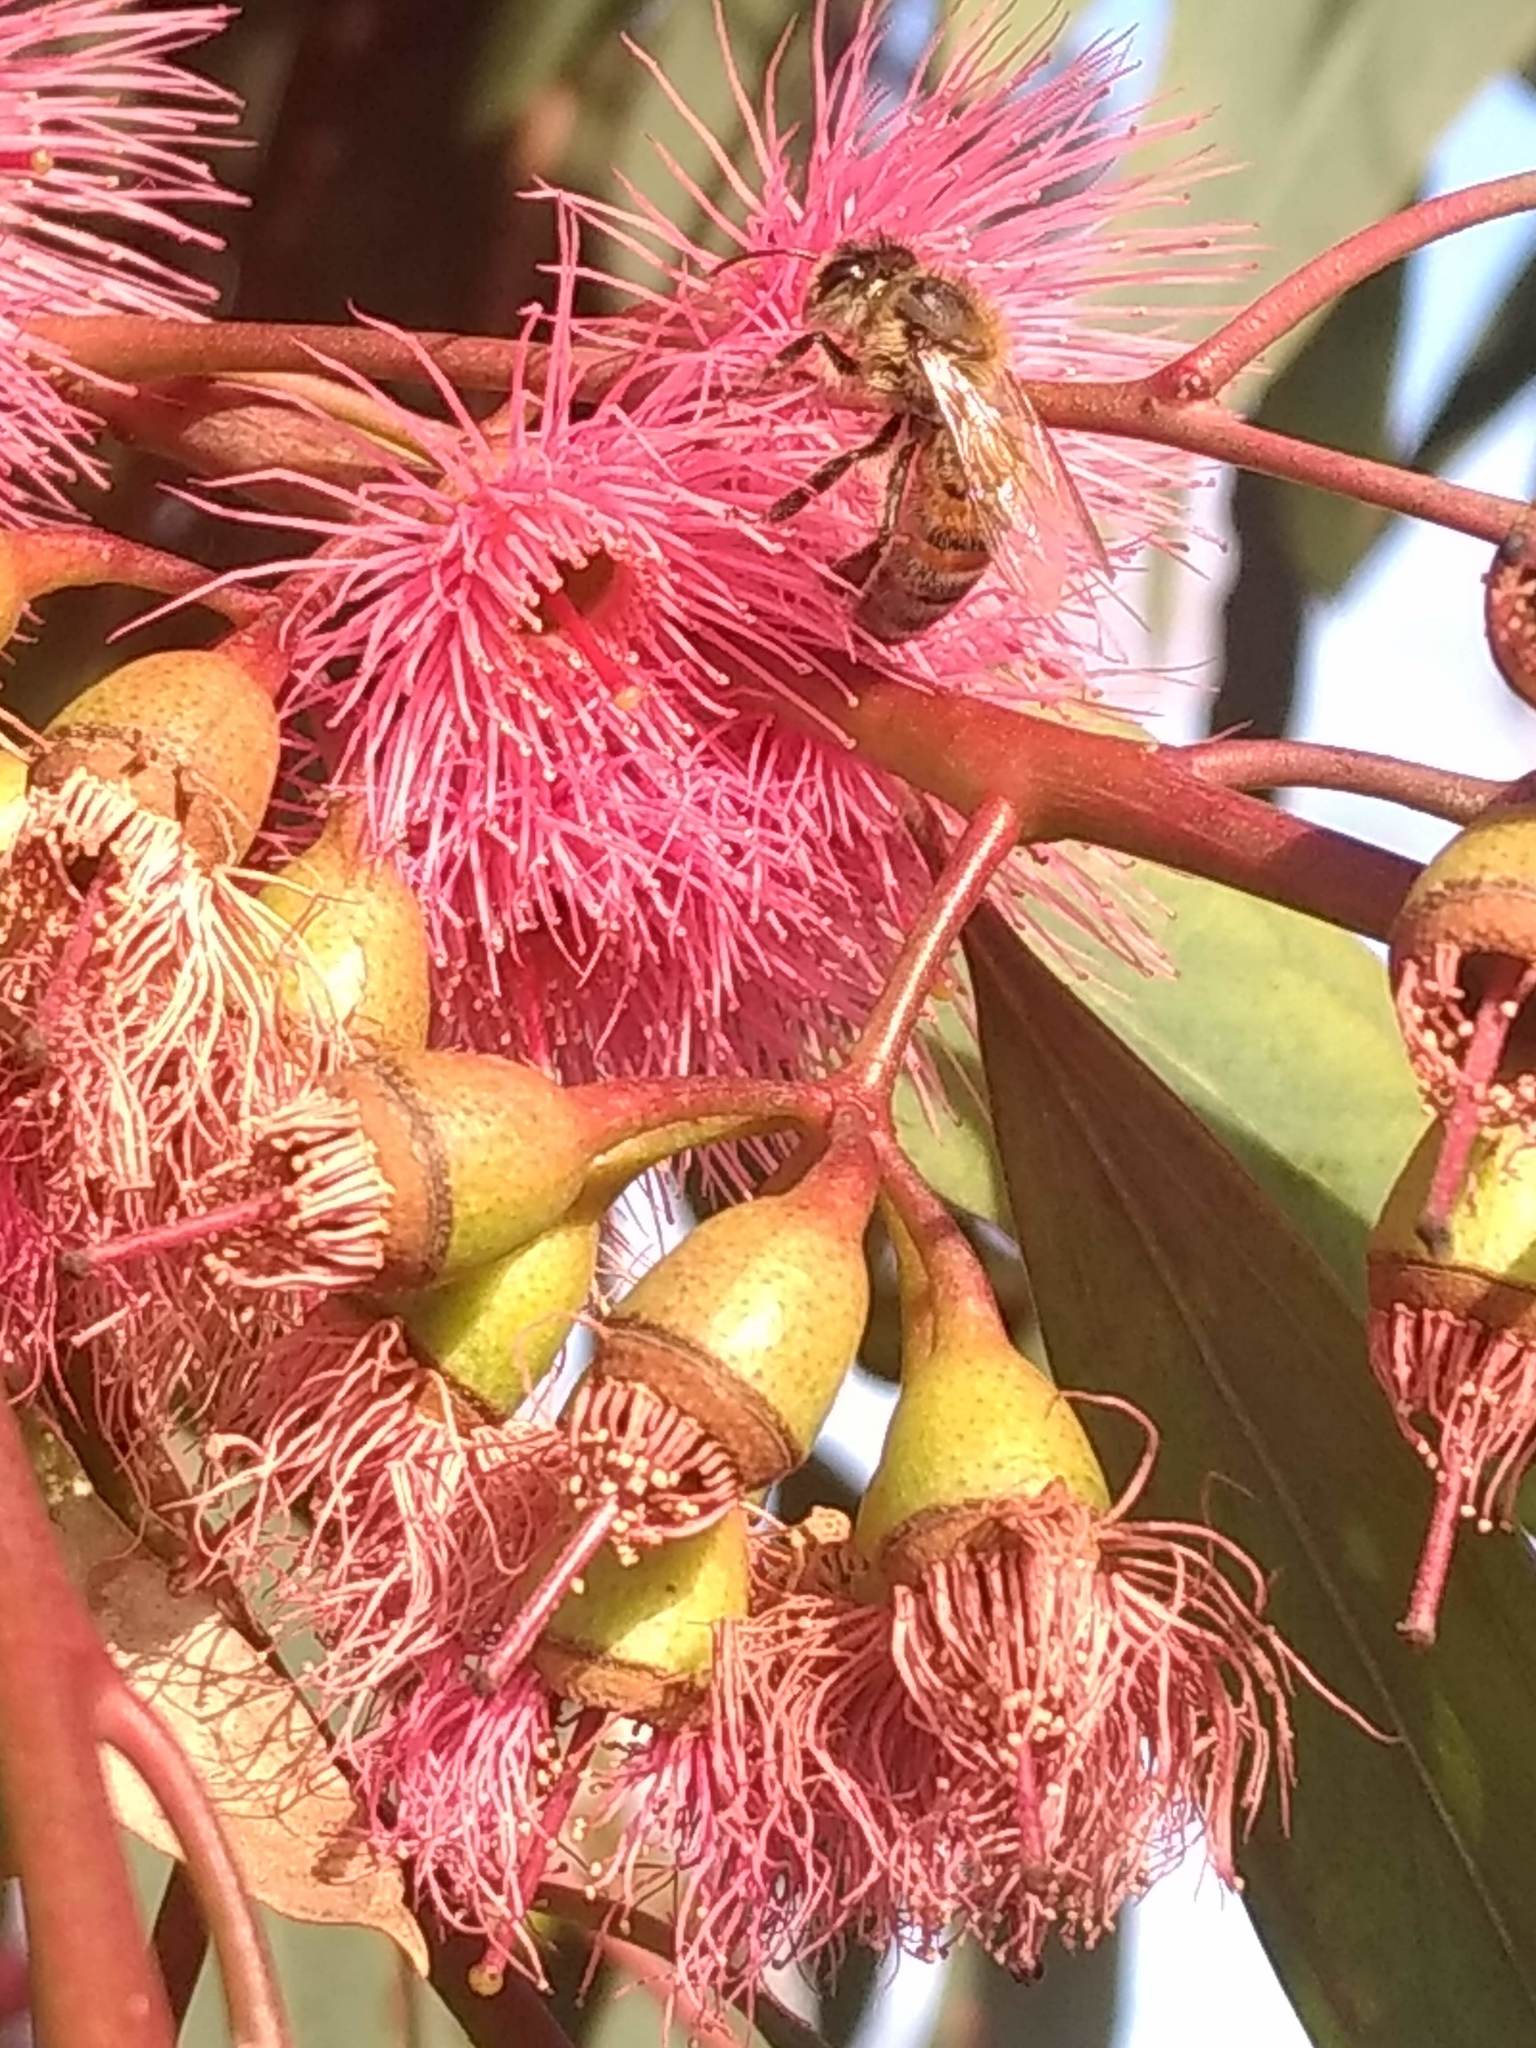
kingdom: Animalia
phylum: Arthropoda
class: Insecta
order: Hymenoptera
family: Apidae
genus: Apis
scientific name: Apis mellifera
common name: Honey bee
